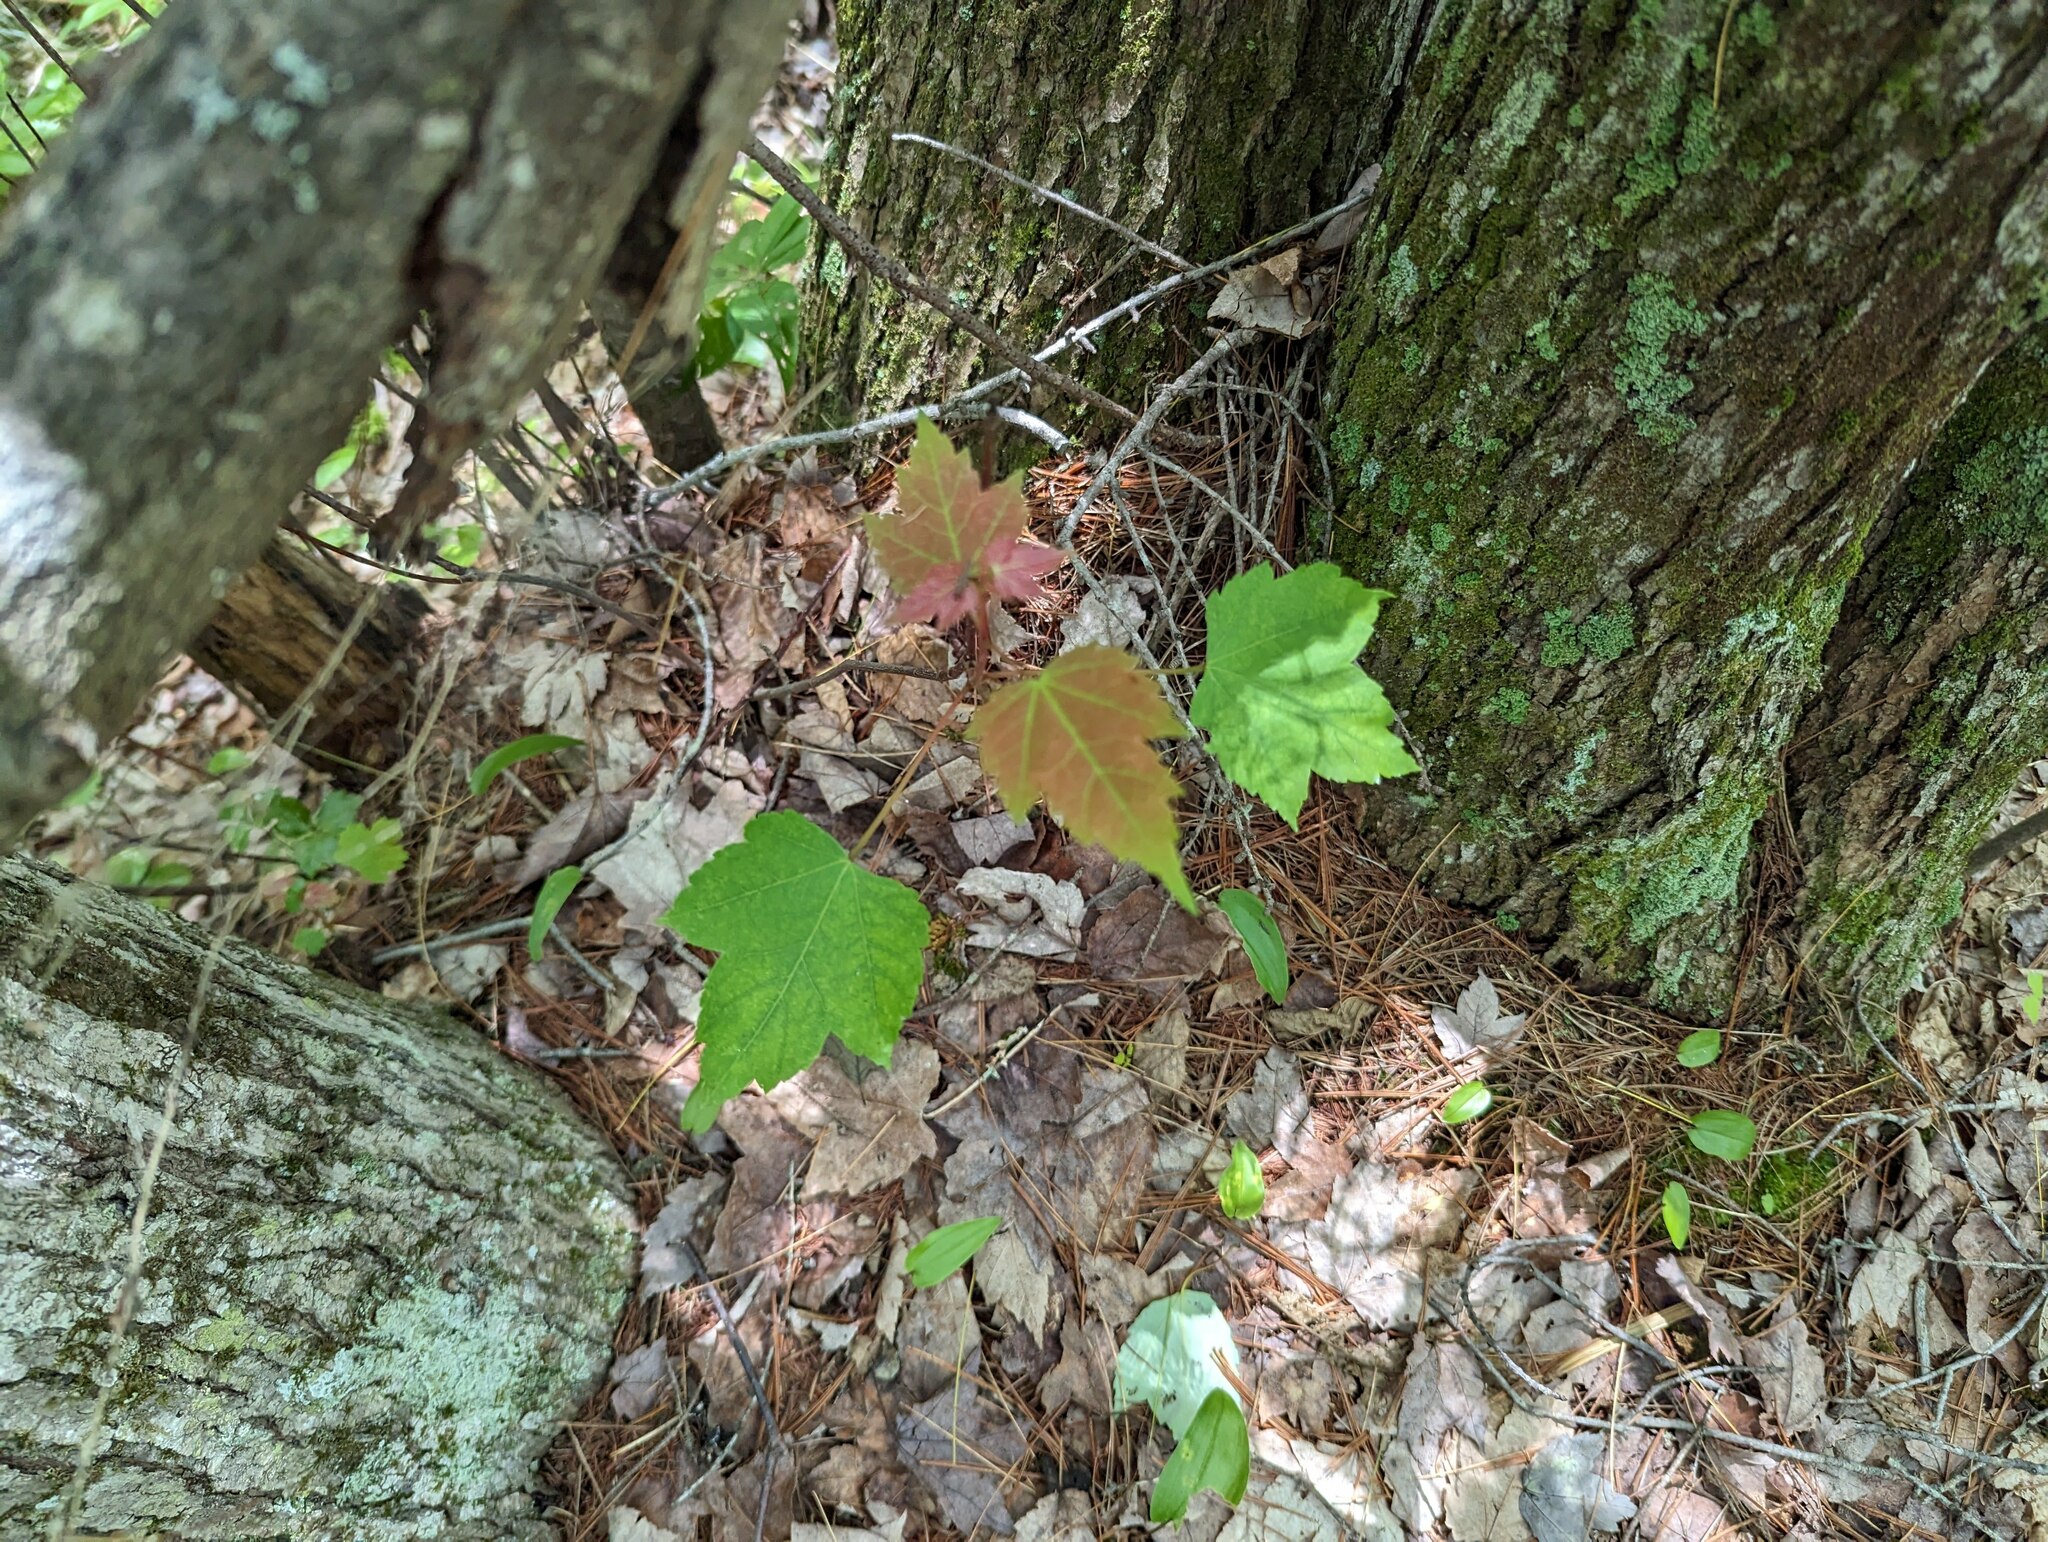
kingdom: Plantae
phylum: Tracheophyta
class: Magnoliopsida
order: Sapindales
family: Sapindaceae
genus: Acer
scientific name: Acer rubrum
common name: Red maple
